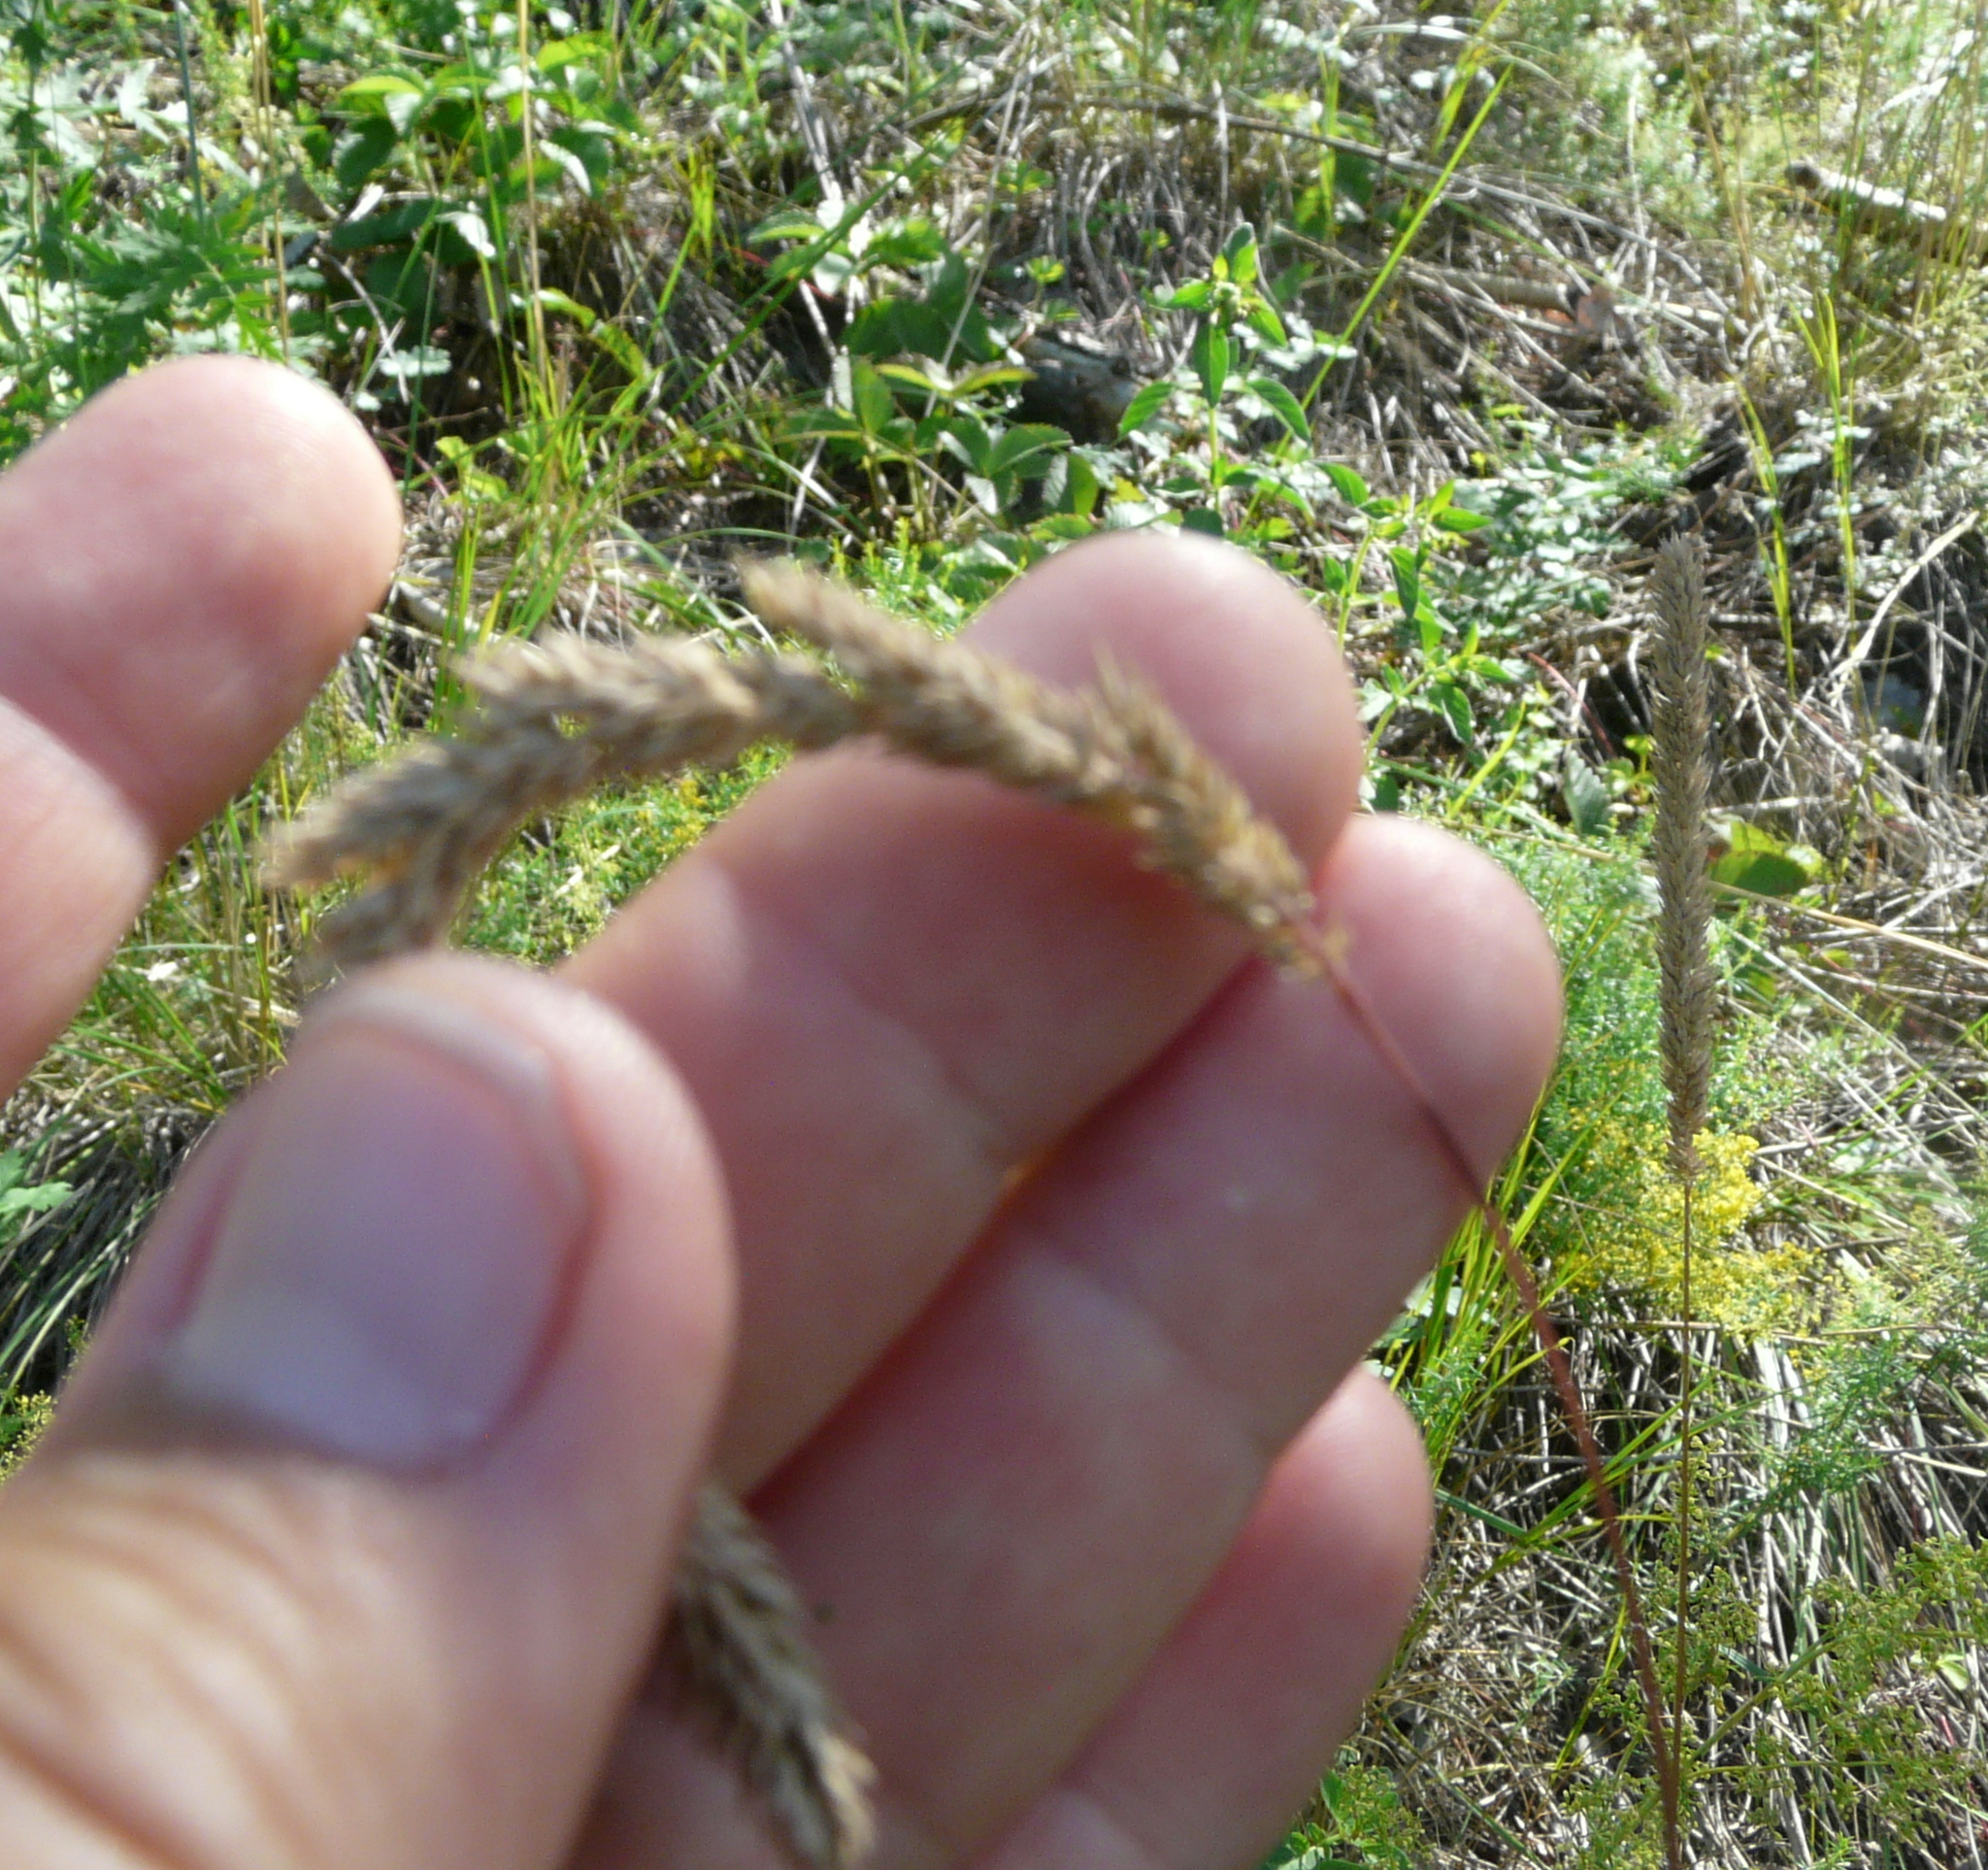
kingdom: Plantae
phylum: Tracheophyta
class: Liliopsida
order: Poales
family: Poaceae
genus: Phleum
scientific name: Phleum phleoides
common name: Purple-stem cat's-tail
